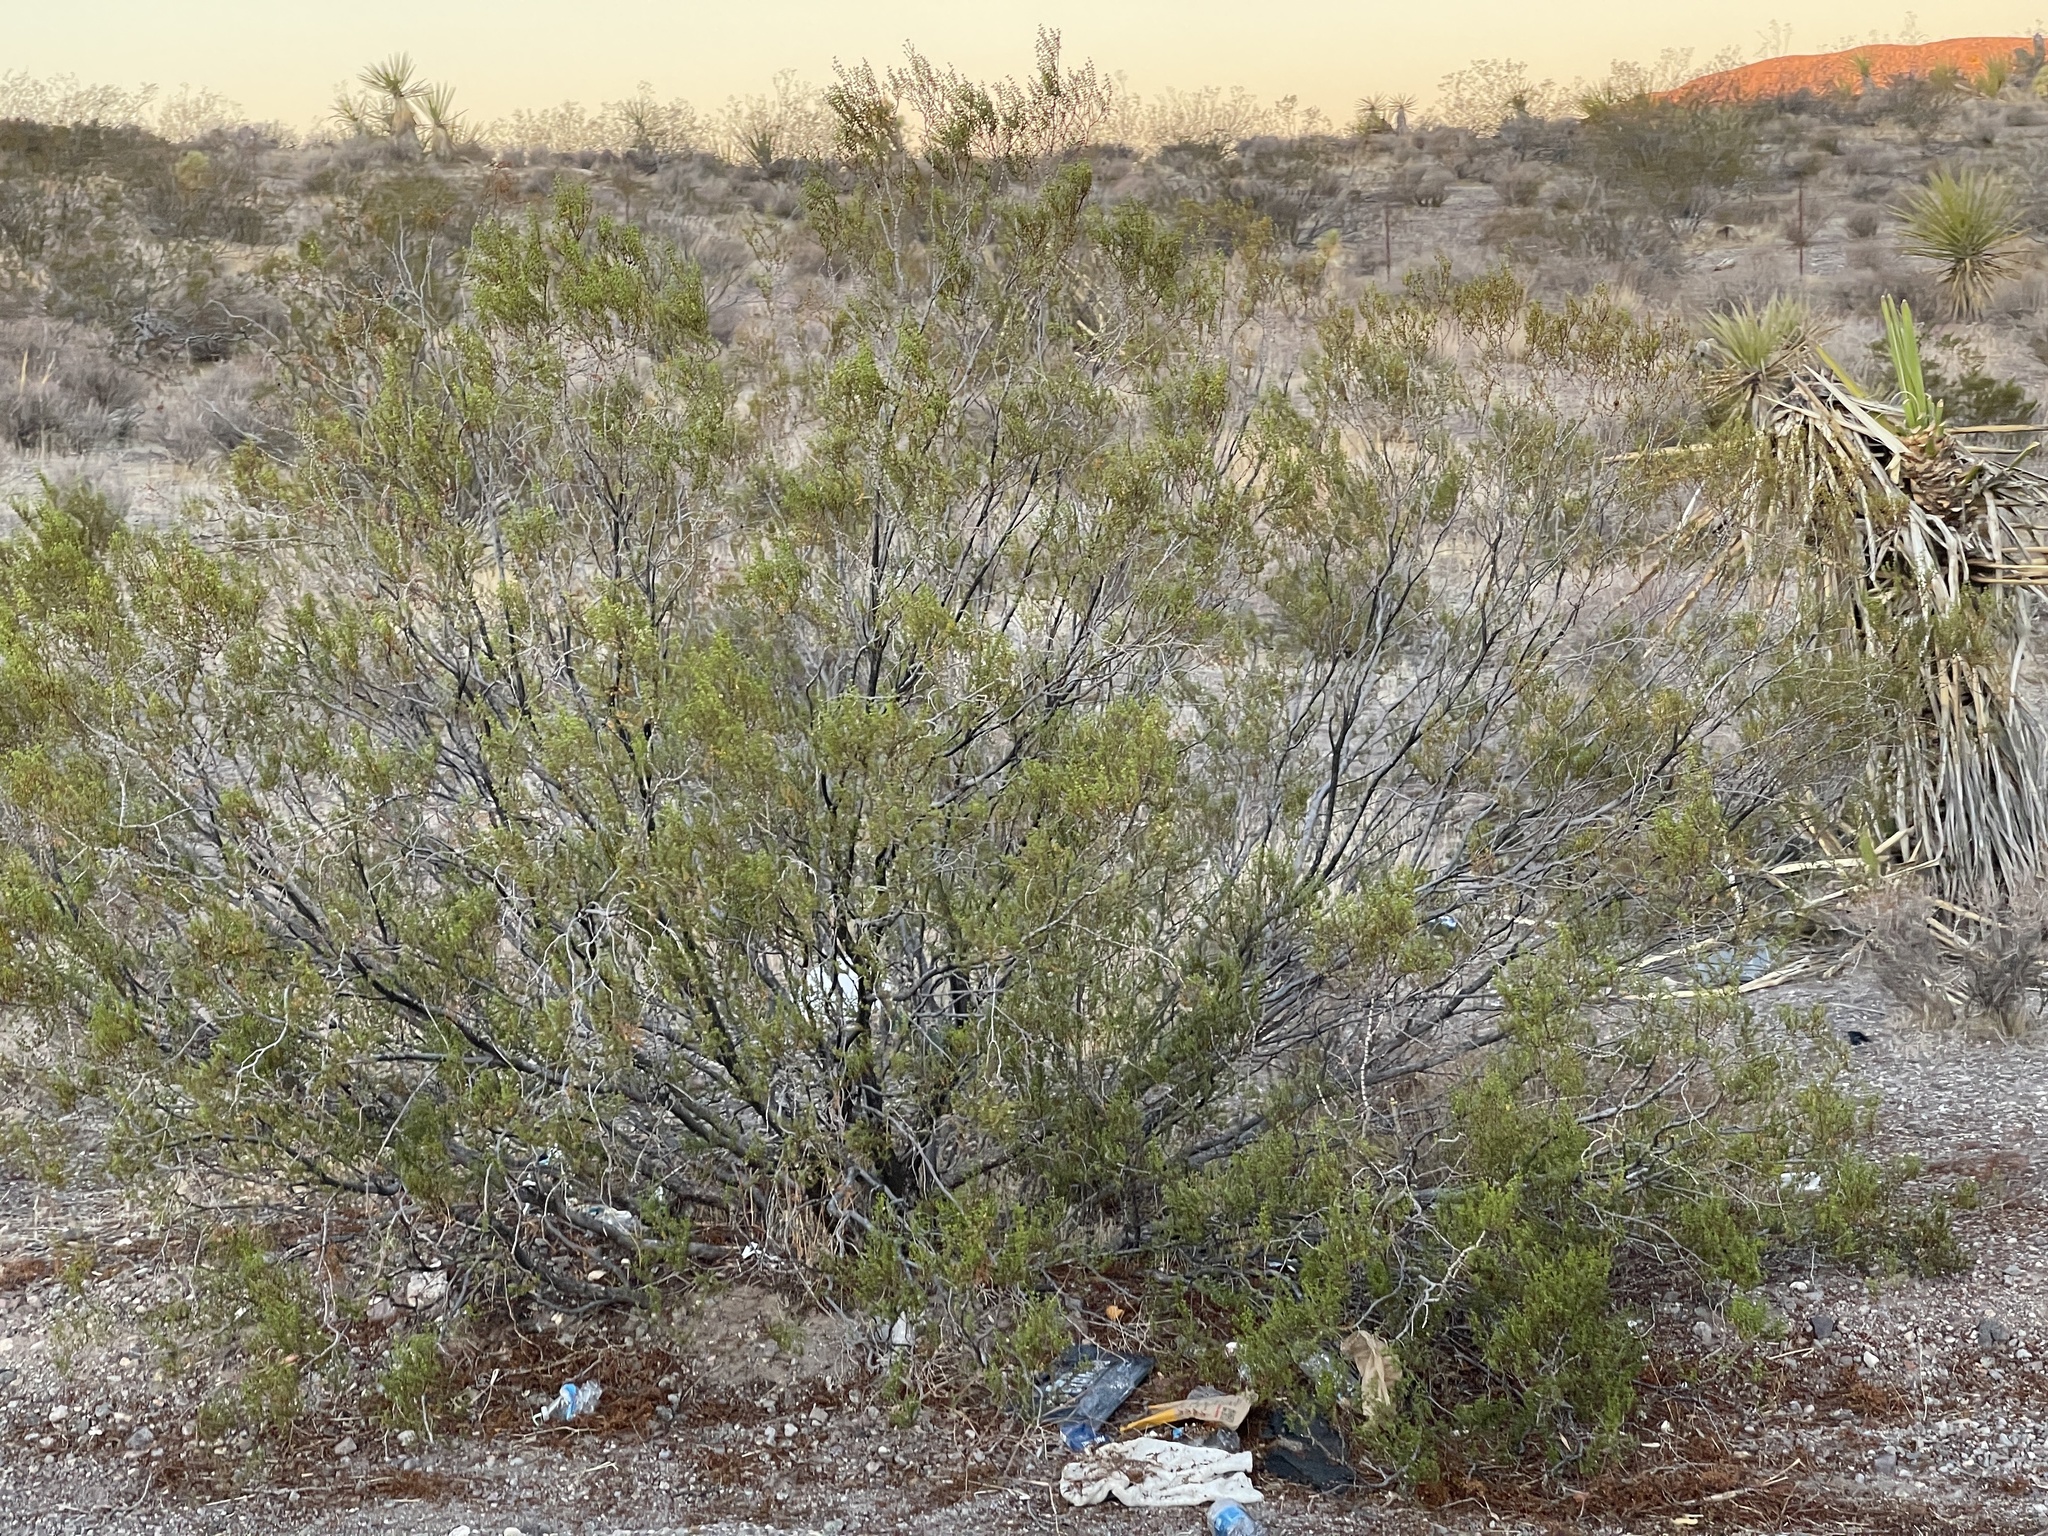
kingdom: Plantae
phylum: Tracheophyta
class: Magnoliopsida
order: Zygophyllales
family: Zygophyllaceae
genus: Larrea
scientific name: Larrea tridentata
